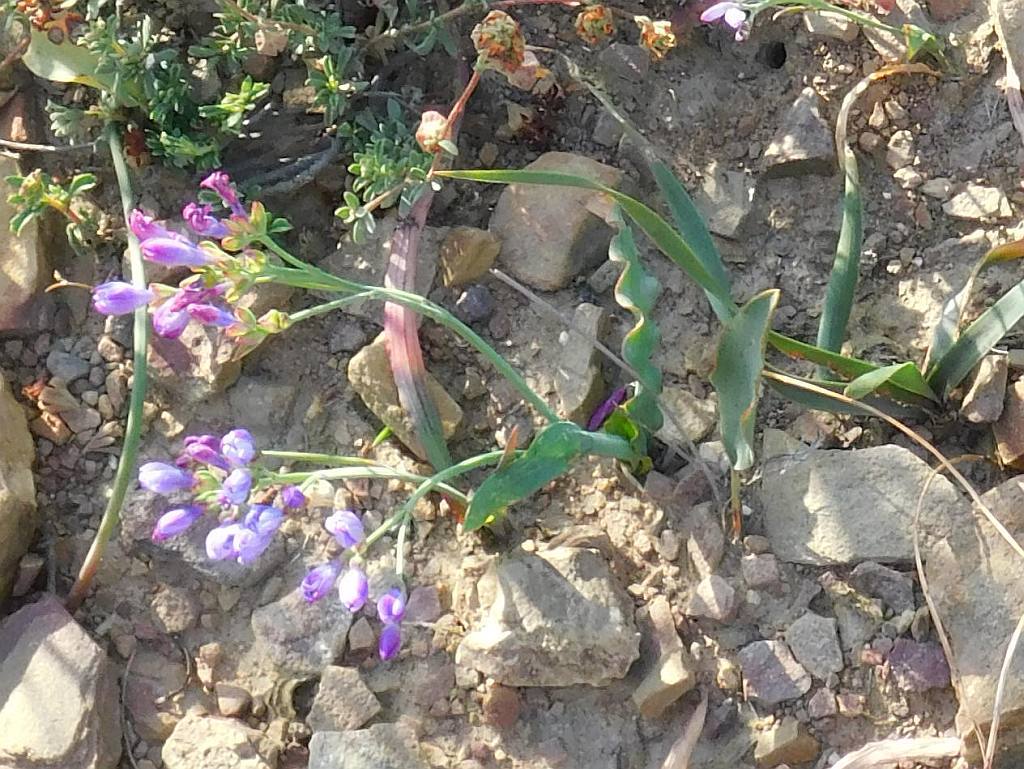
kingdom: Plantae
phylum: Tracheophyta
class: Liliopsida
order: Asparagales
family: Iridaceae
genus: Codonorhiza
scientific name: Codonorhiza corymbosa
